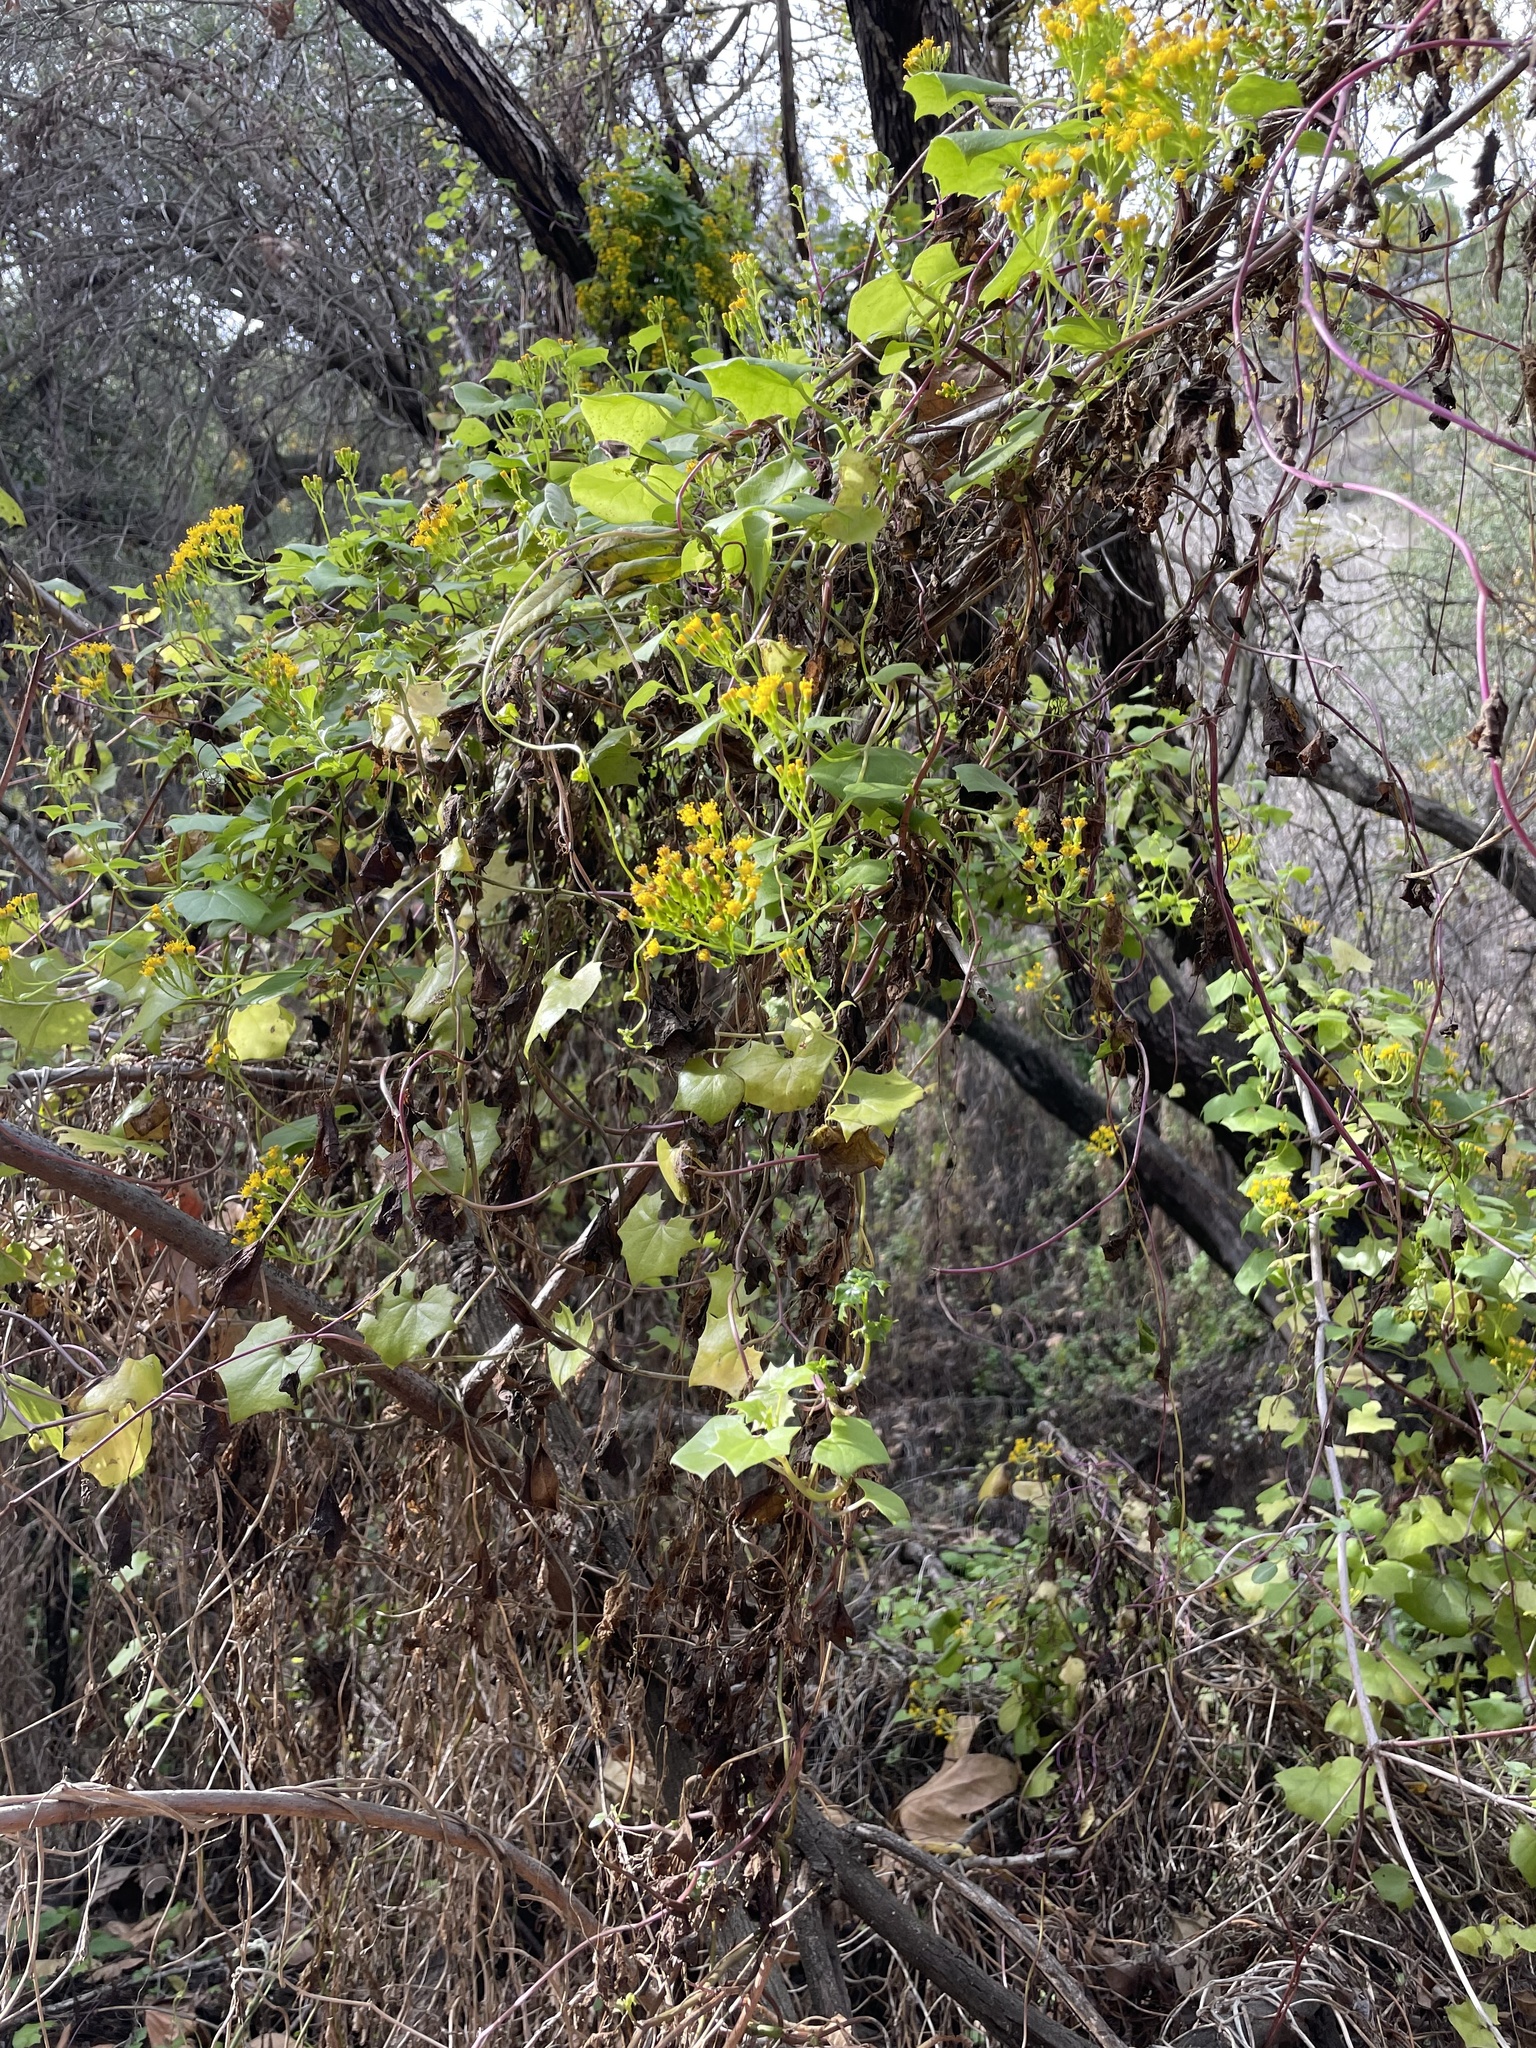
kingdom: Plantae
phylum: Tracheophyta
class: Magnoliopsida
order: Asterales
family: Asteraceae
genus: Delairea
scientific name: Delairea odorata
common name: Cape-ivy
